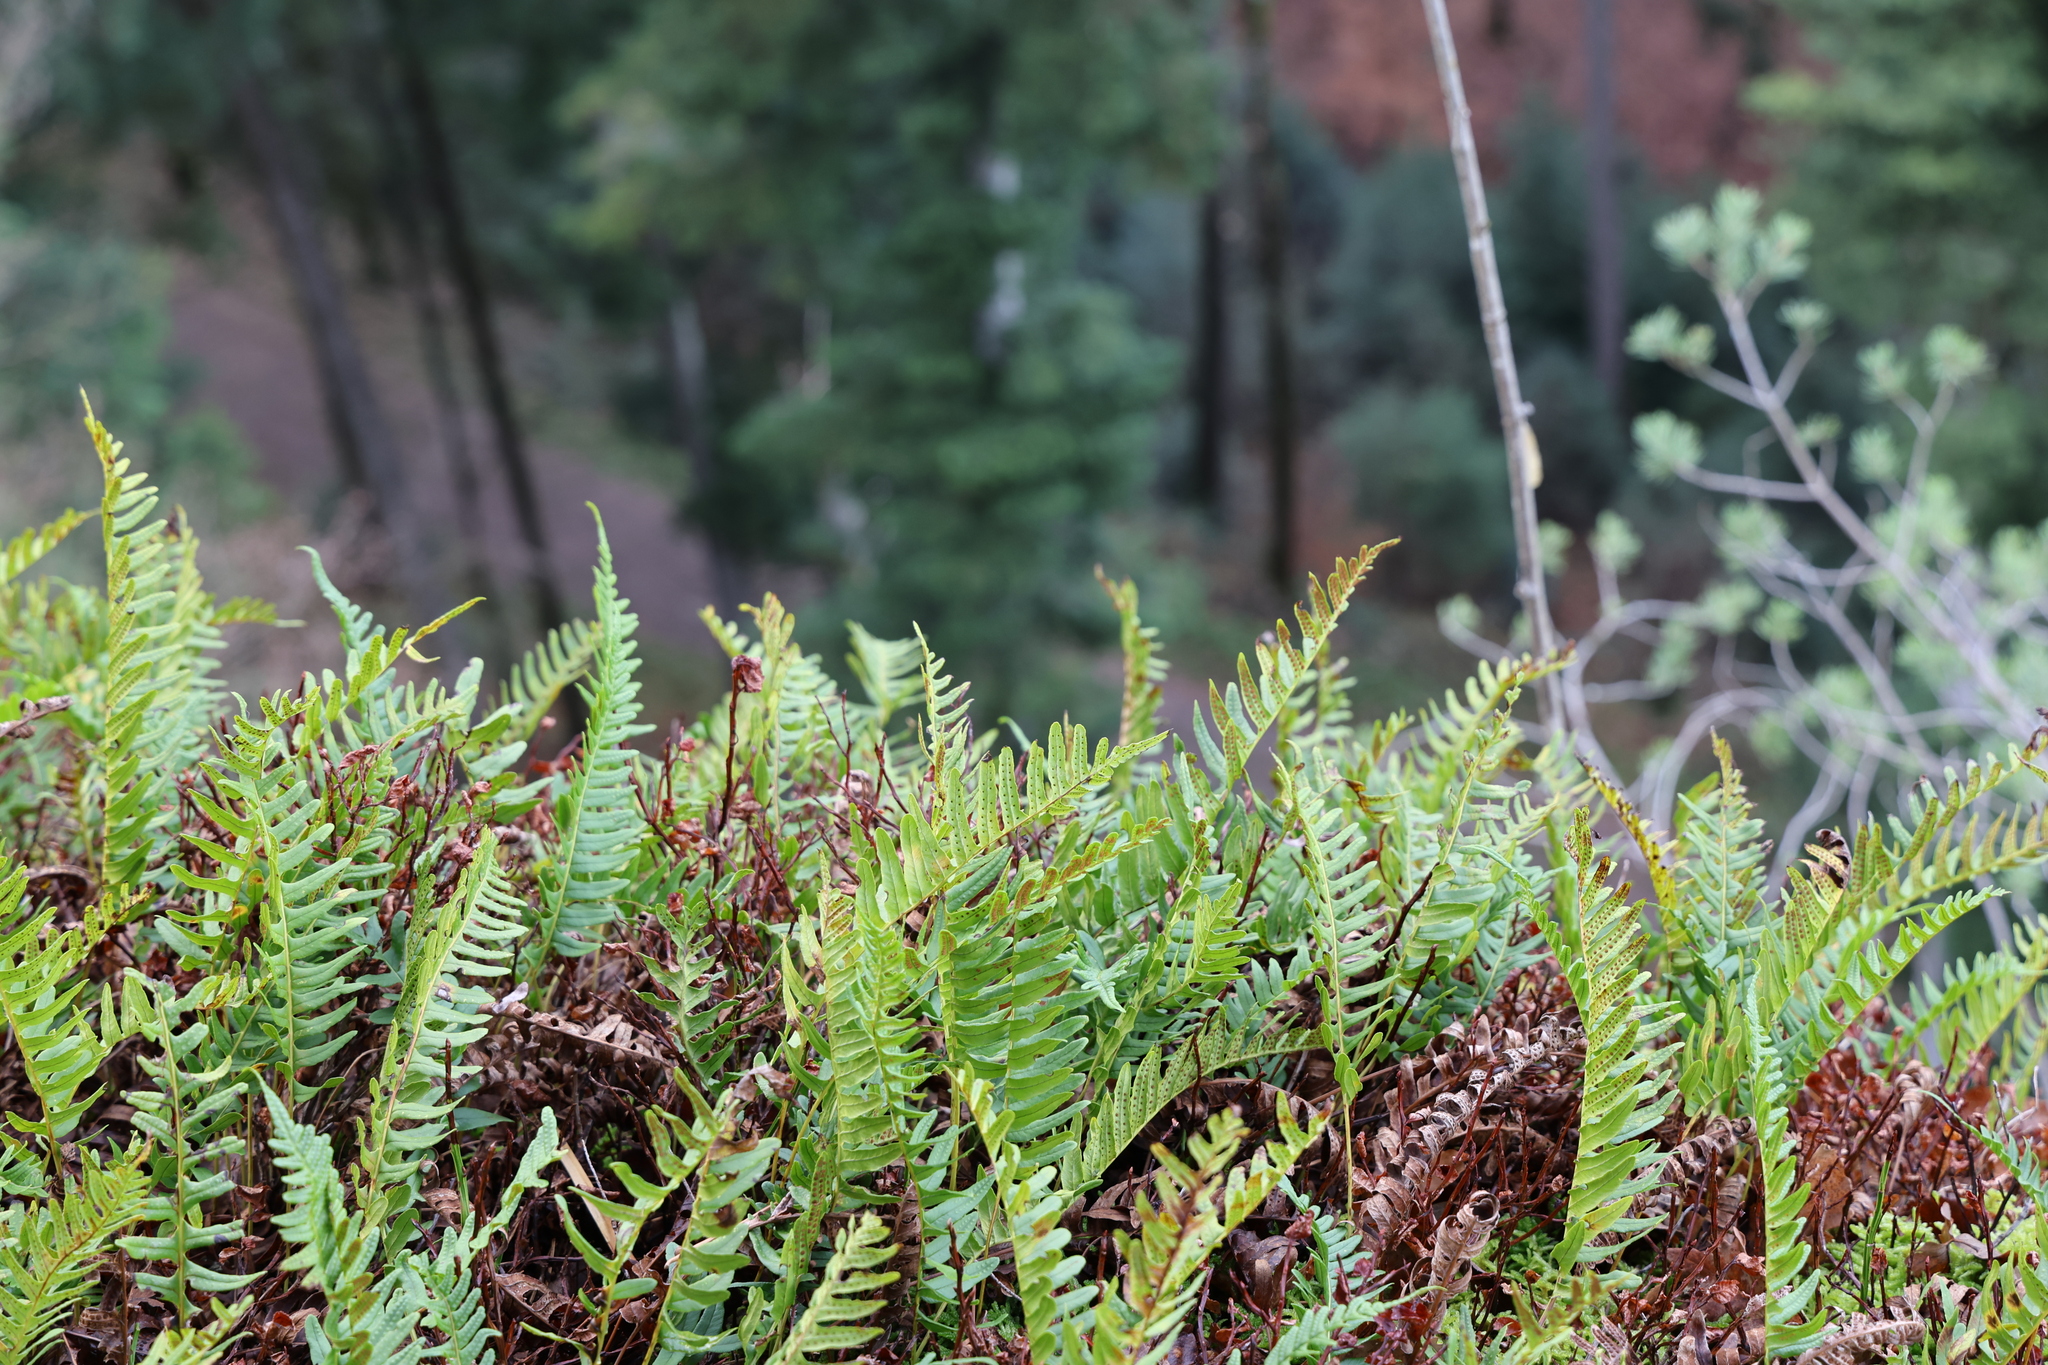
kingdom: Plantae
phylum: Tracheophyta
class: Polypodiopsida
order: Polypodiales
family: Polypodiaceae
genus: Polypodium
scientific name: Polypodium vulgare
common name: Common polypody
